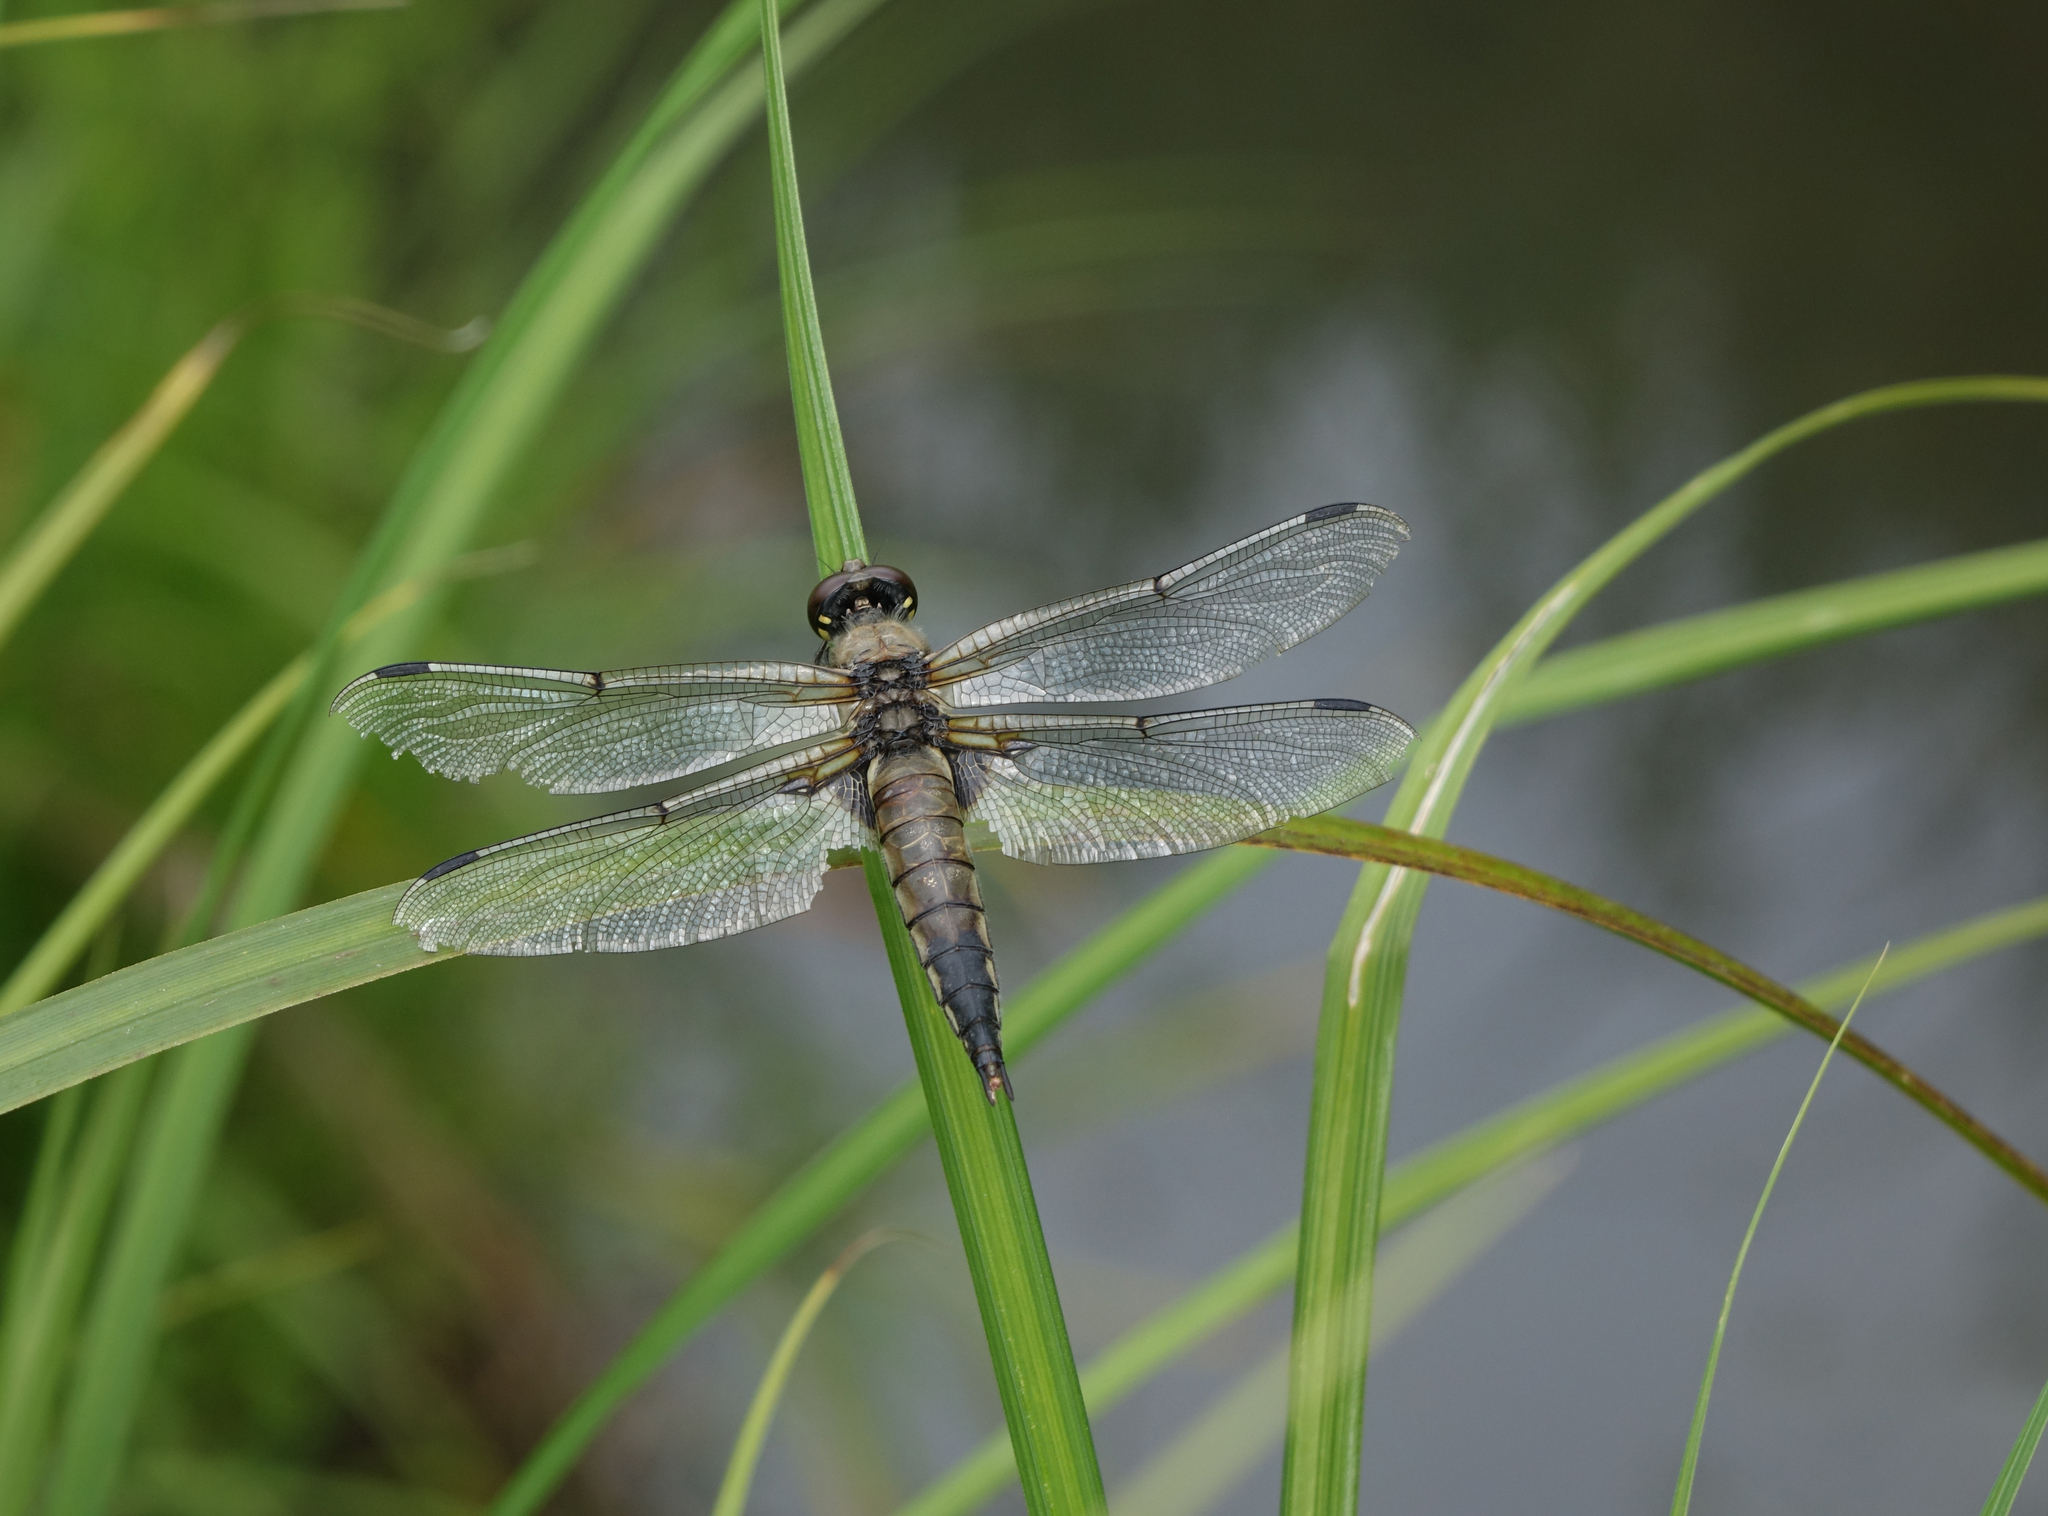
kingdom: Animalia
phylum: Arthropoda
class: Insecta
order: Odonata
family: Libellulidae
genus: Libellula
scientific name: Libellula quadrimaculata
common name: Four-spotted chaser
